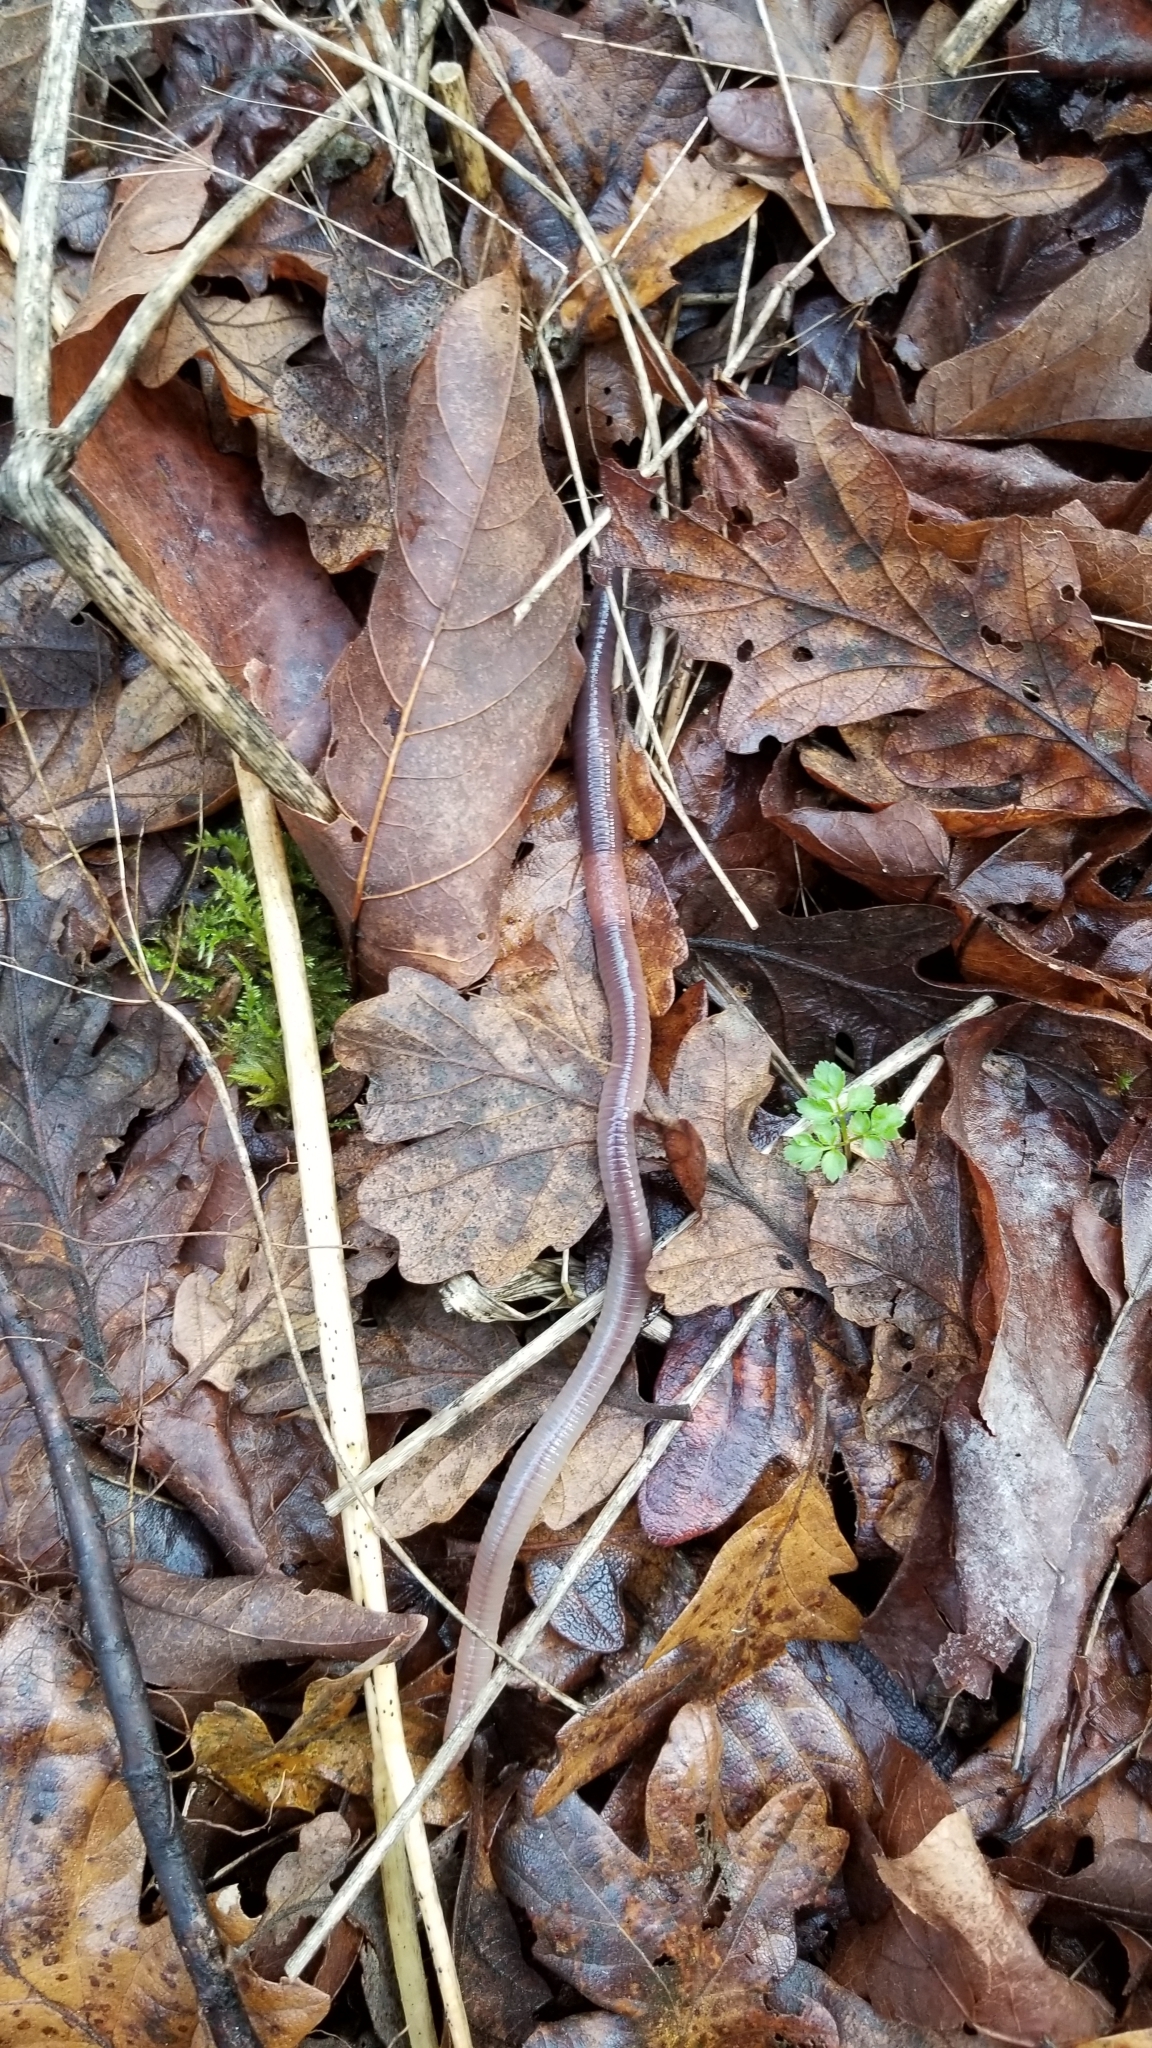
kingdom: Animalia
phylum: Annelida
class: Clitellata
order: Crassiclitellata
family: Lumbricidae
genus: Lumbricus
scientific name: Lumbricus terrestris
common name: Common earthworm
